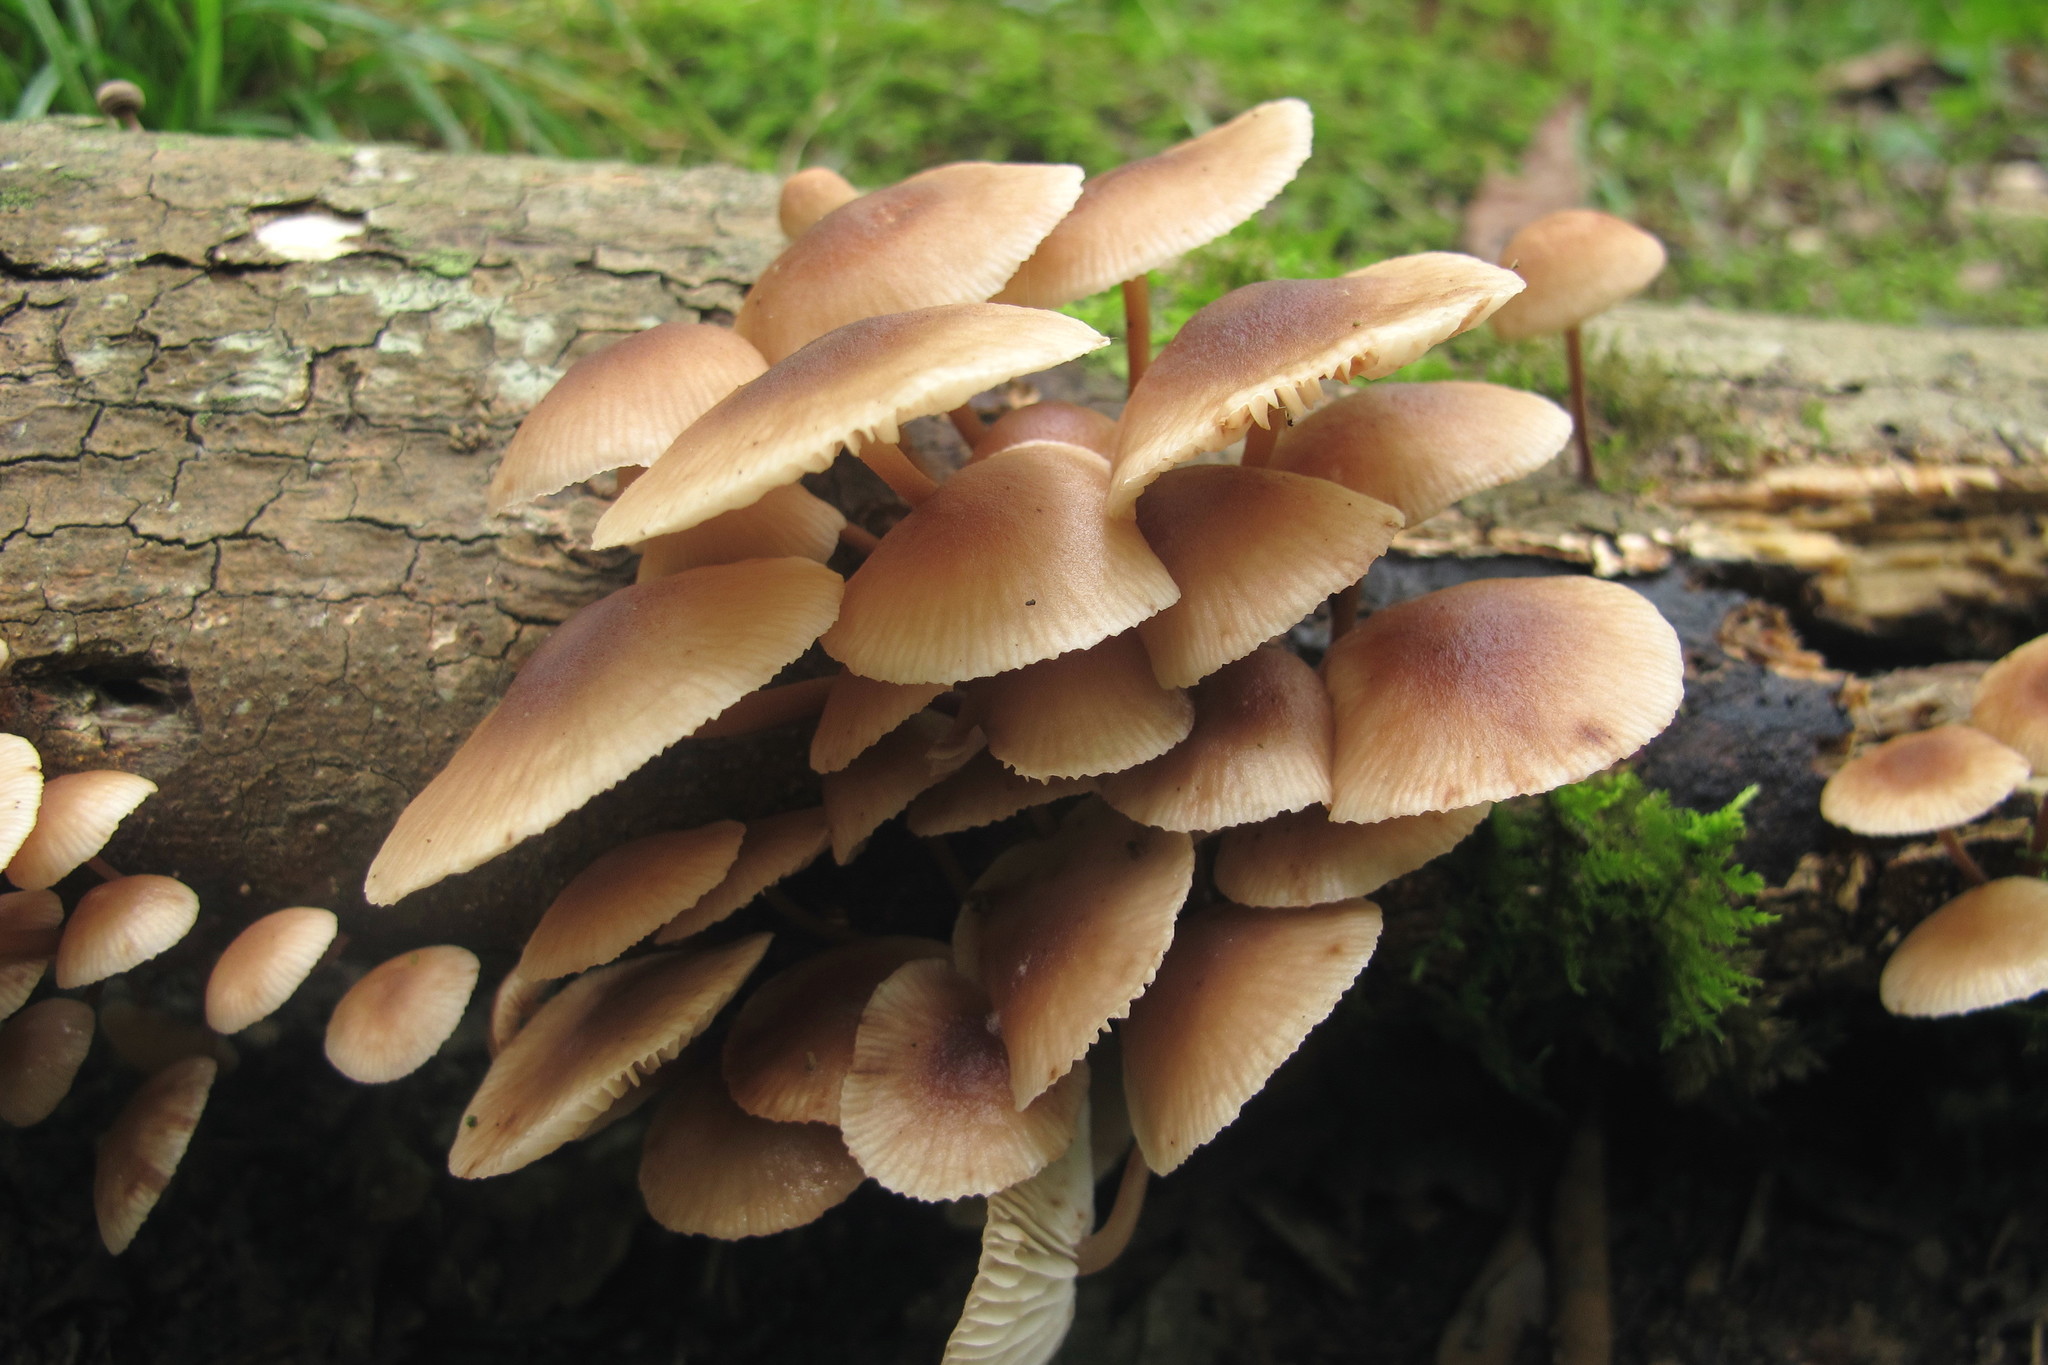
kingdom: Fungi
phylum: Basidiomycota
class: Agaricomycetes
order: Agaricales
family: Omphalotaceae
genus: Collybiopsis
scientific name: Collybiopsis dichroa
